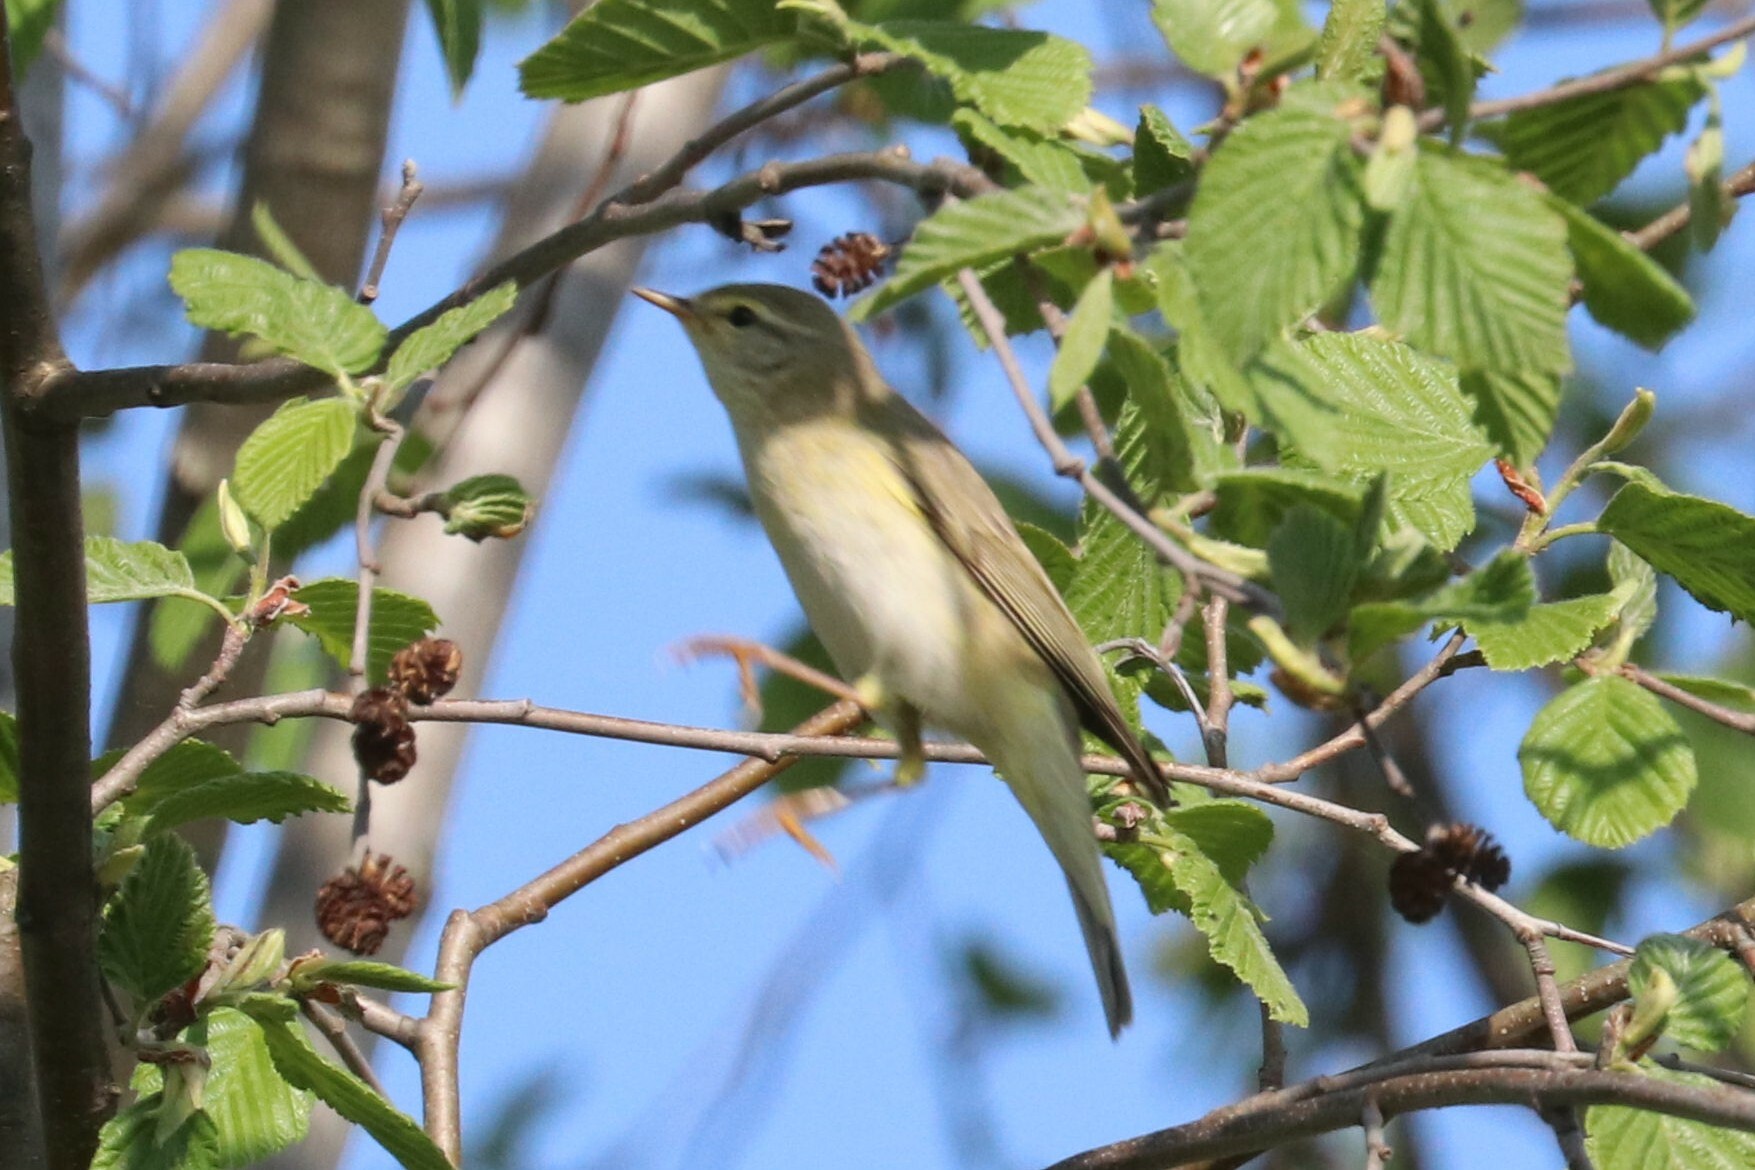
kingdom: Animalia
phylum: Chordata
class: Aves
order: Passeriformes
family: Phylloscopidae
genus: Phylloscopus
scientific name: Phylloscopus trochilus
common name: Willow warbler
